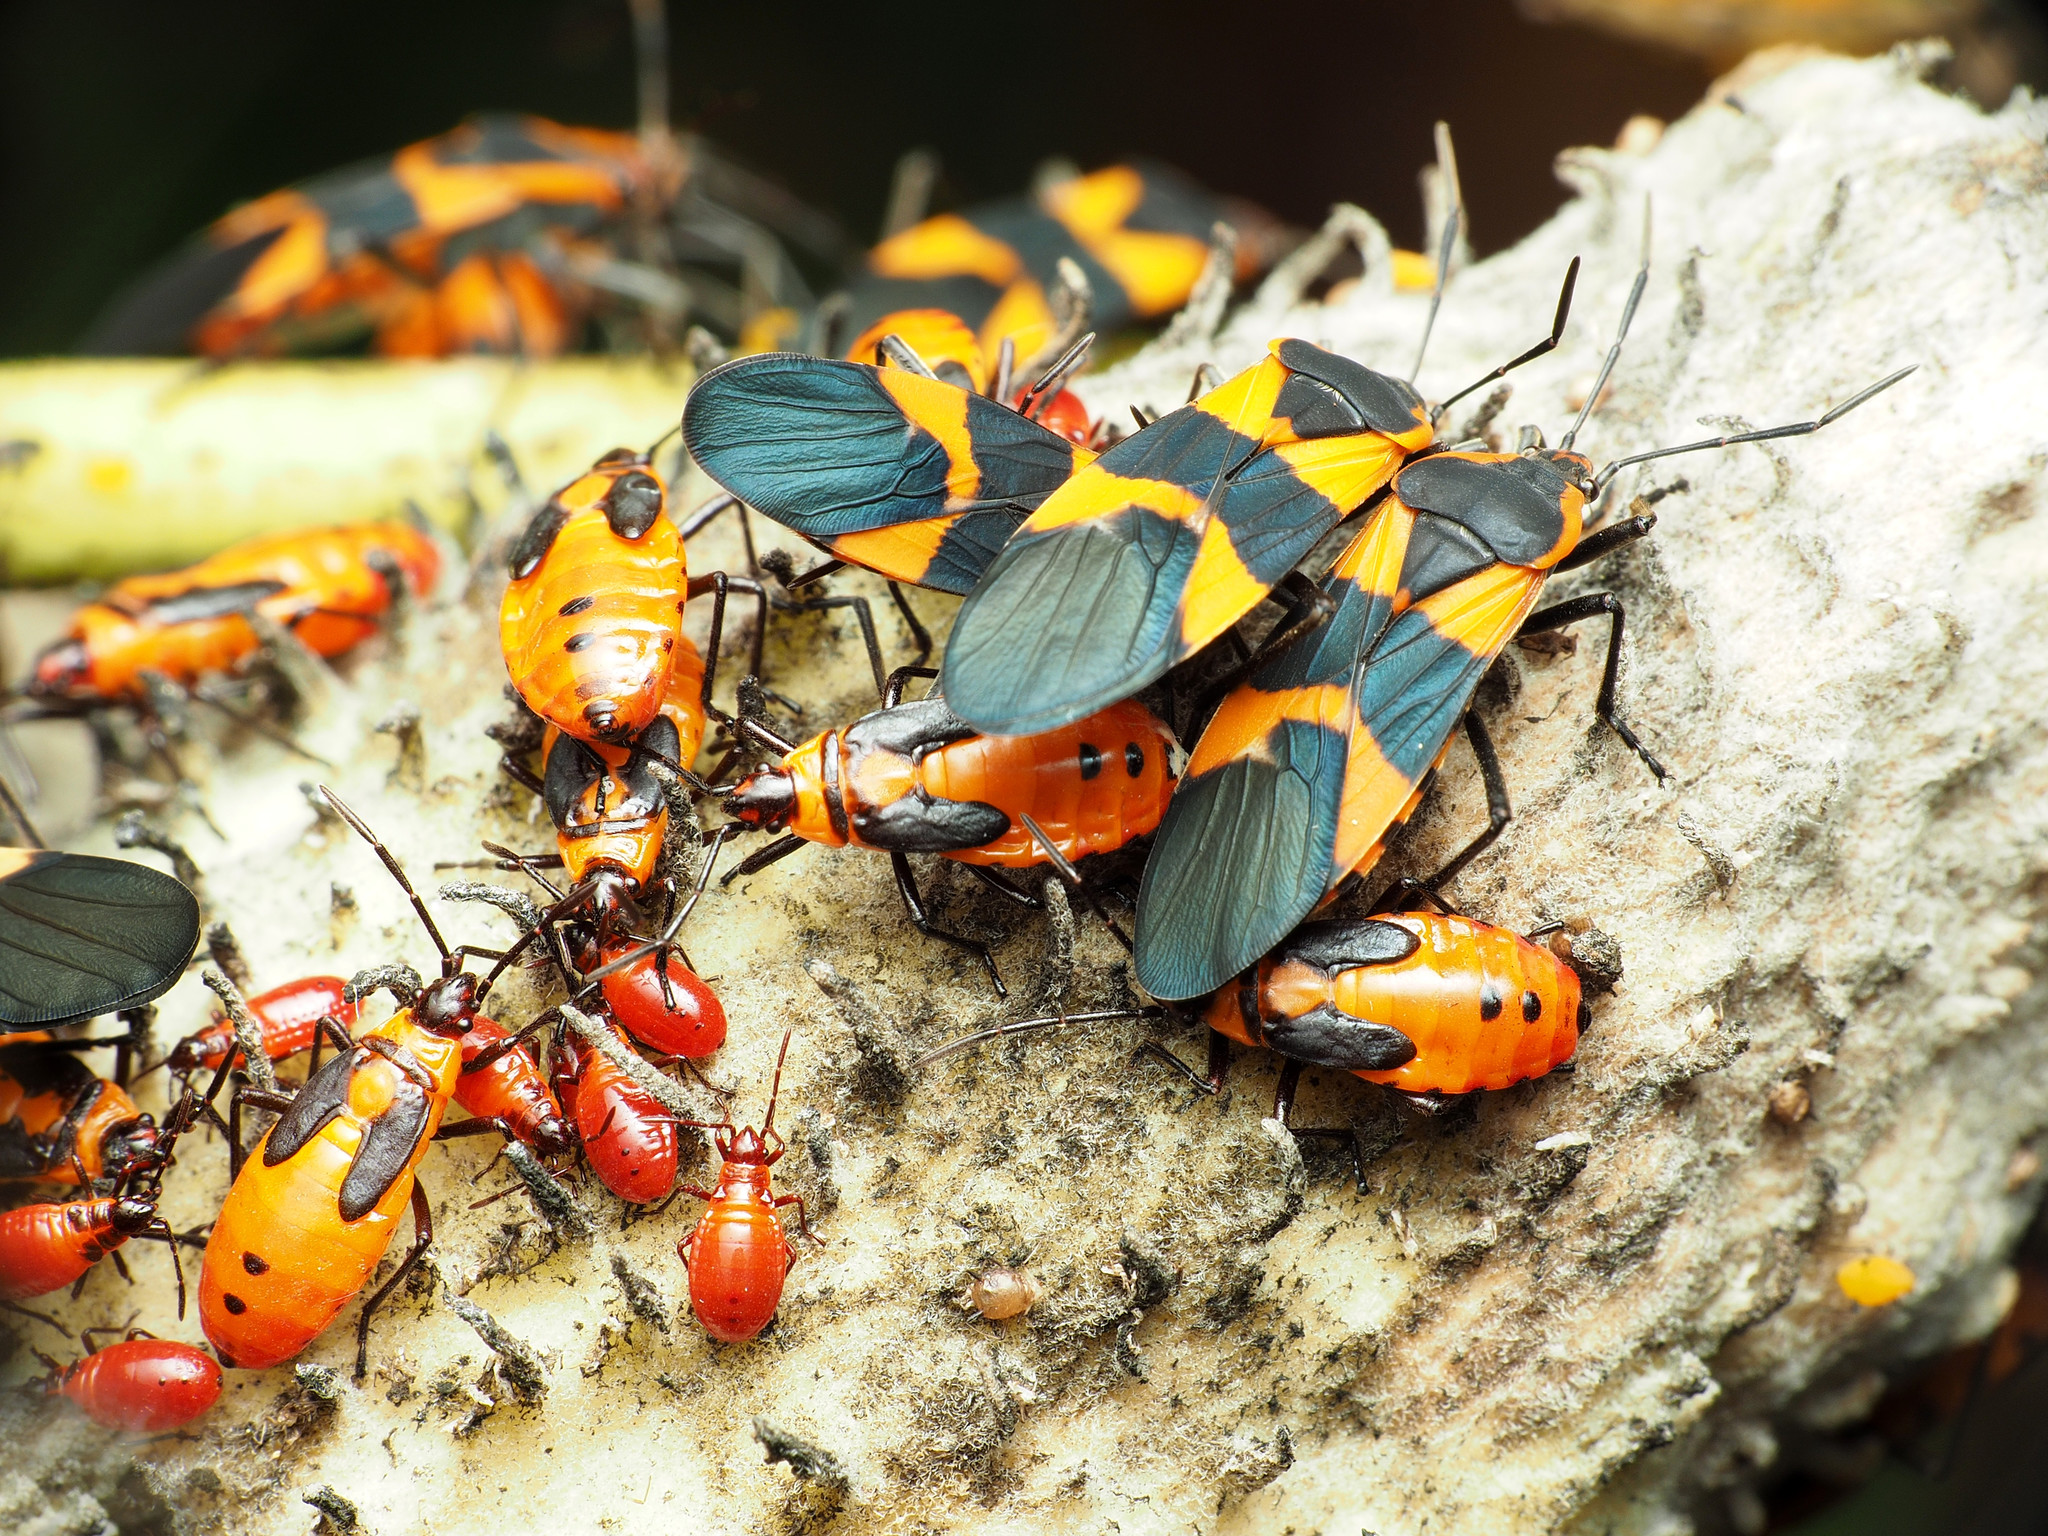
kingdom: Animalia
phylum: Arthropoda
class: Insecta
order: Hemiptera
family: Lygaeidae
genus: Oncopeltus
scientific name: Oncopeltus fasciatus
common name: Large milkweed bug
